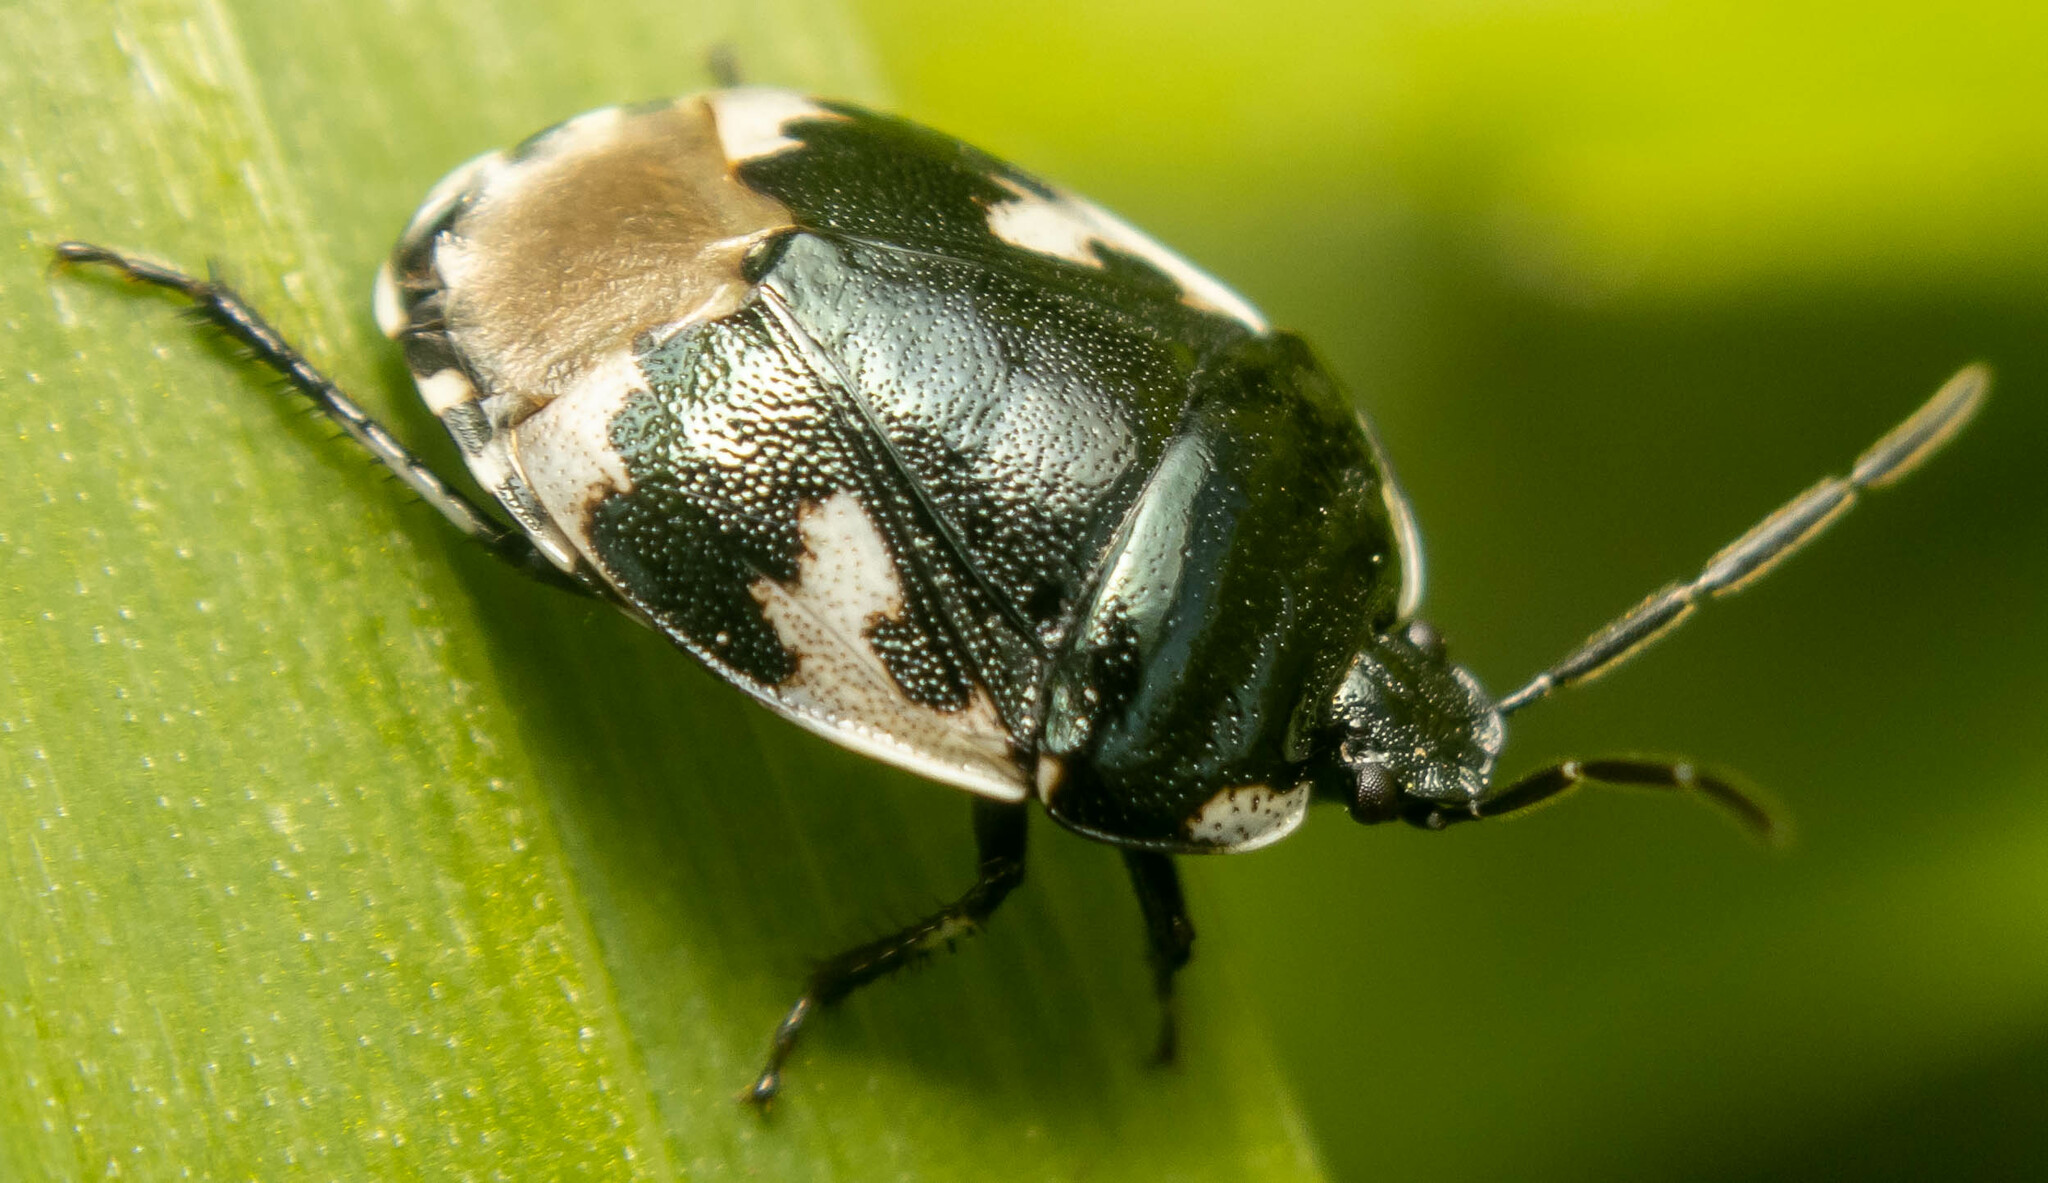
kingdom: Animalia
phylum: Arthropoda
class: Insecta
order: Hemiptera
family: Cydnidae
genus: Tritomegas
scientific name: Tritomegas bicolor
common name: Pied shieldbug
